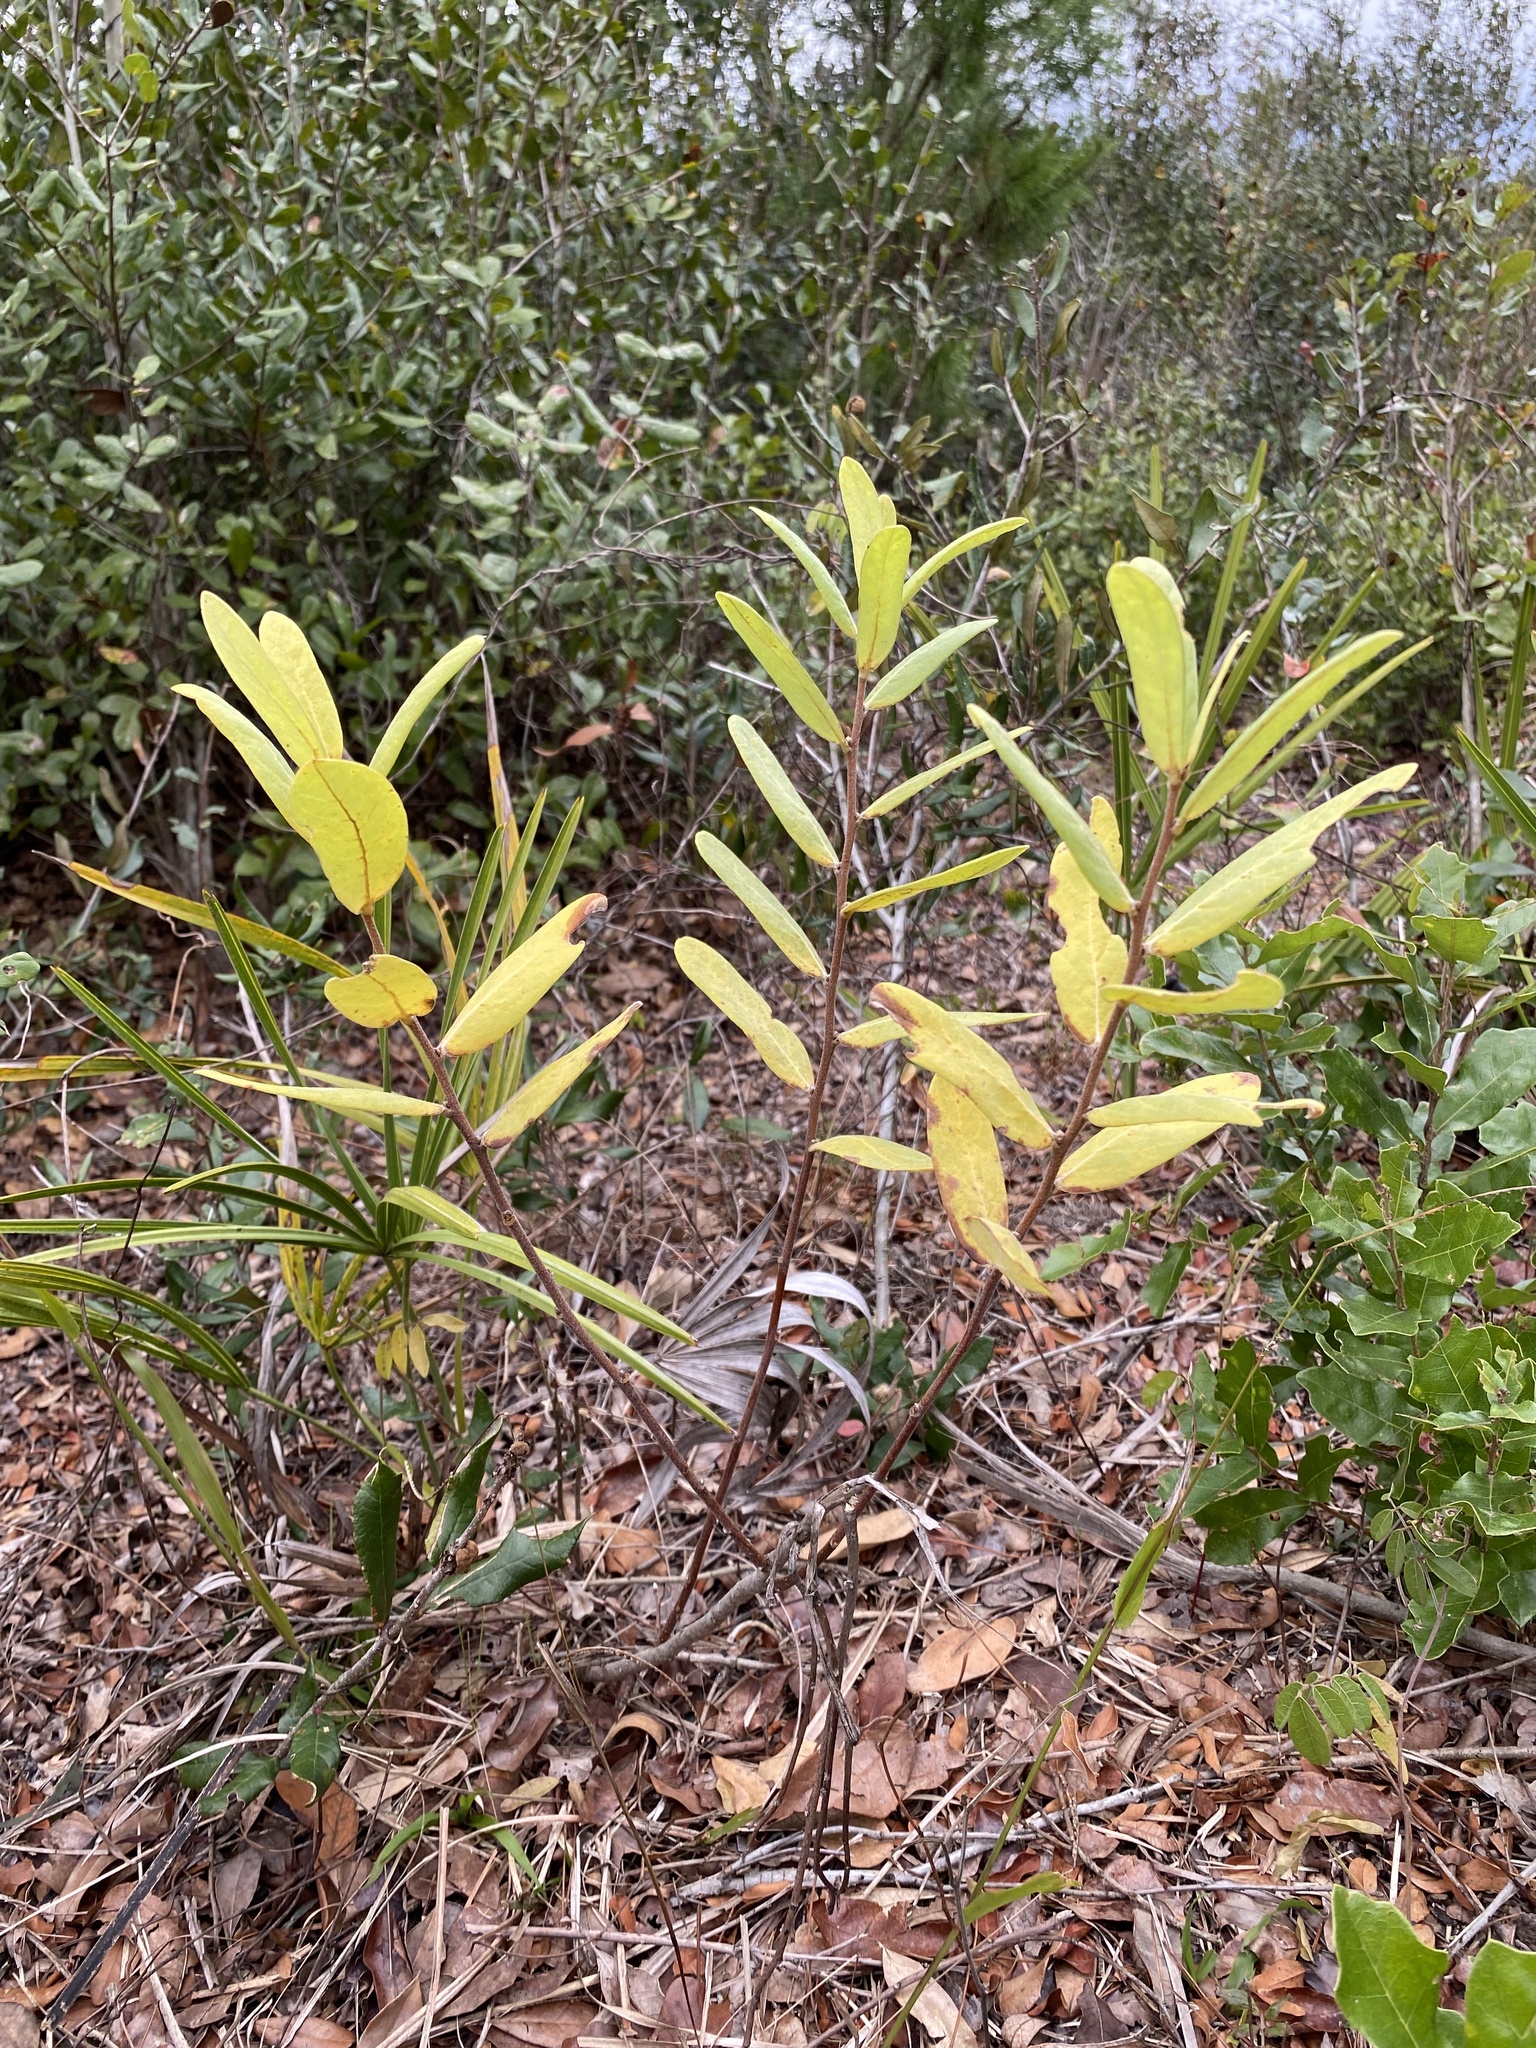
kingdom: Plantae
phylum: Tracheophyta
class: Magnoliopsida
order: Magnoliales
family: Annonaceae
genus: Asimina
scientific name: Asimina reticulata
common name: Flag pawpaw
